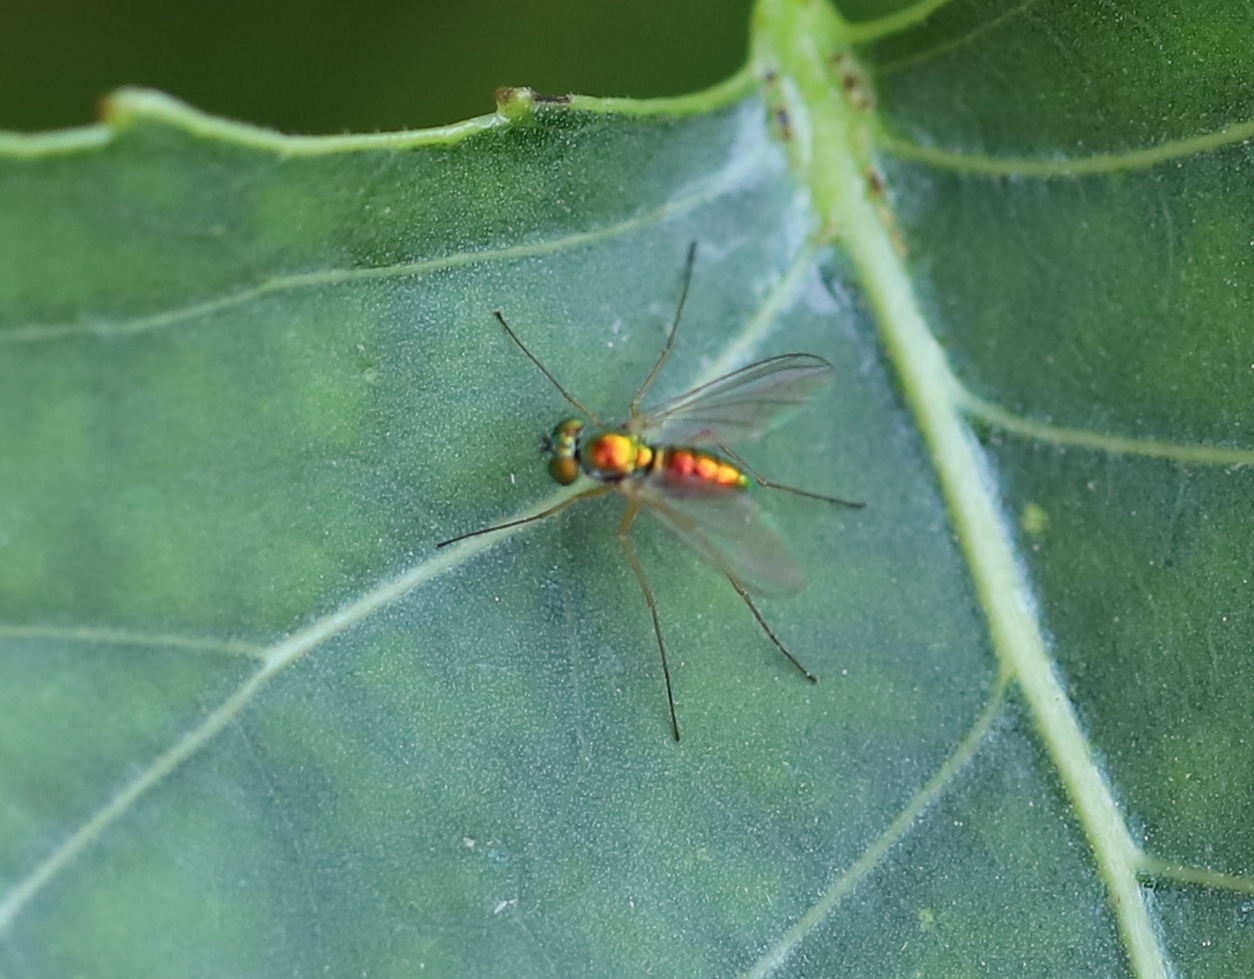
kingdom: Animalia
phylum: Arthropoda
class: Insecta
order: Diptera
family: Dolichopodidae
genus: Amblypsilopus
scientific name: Amblypsilopus scintillans
